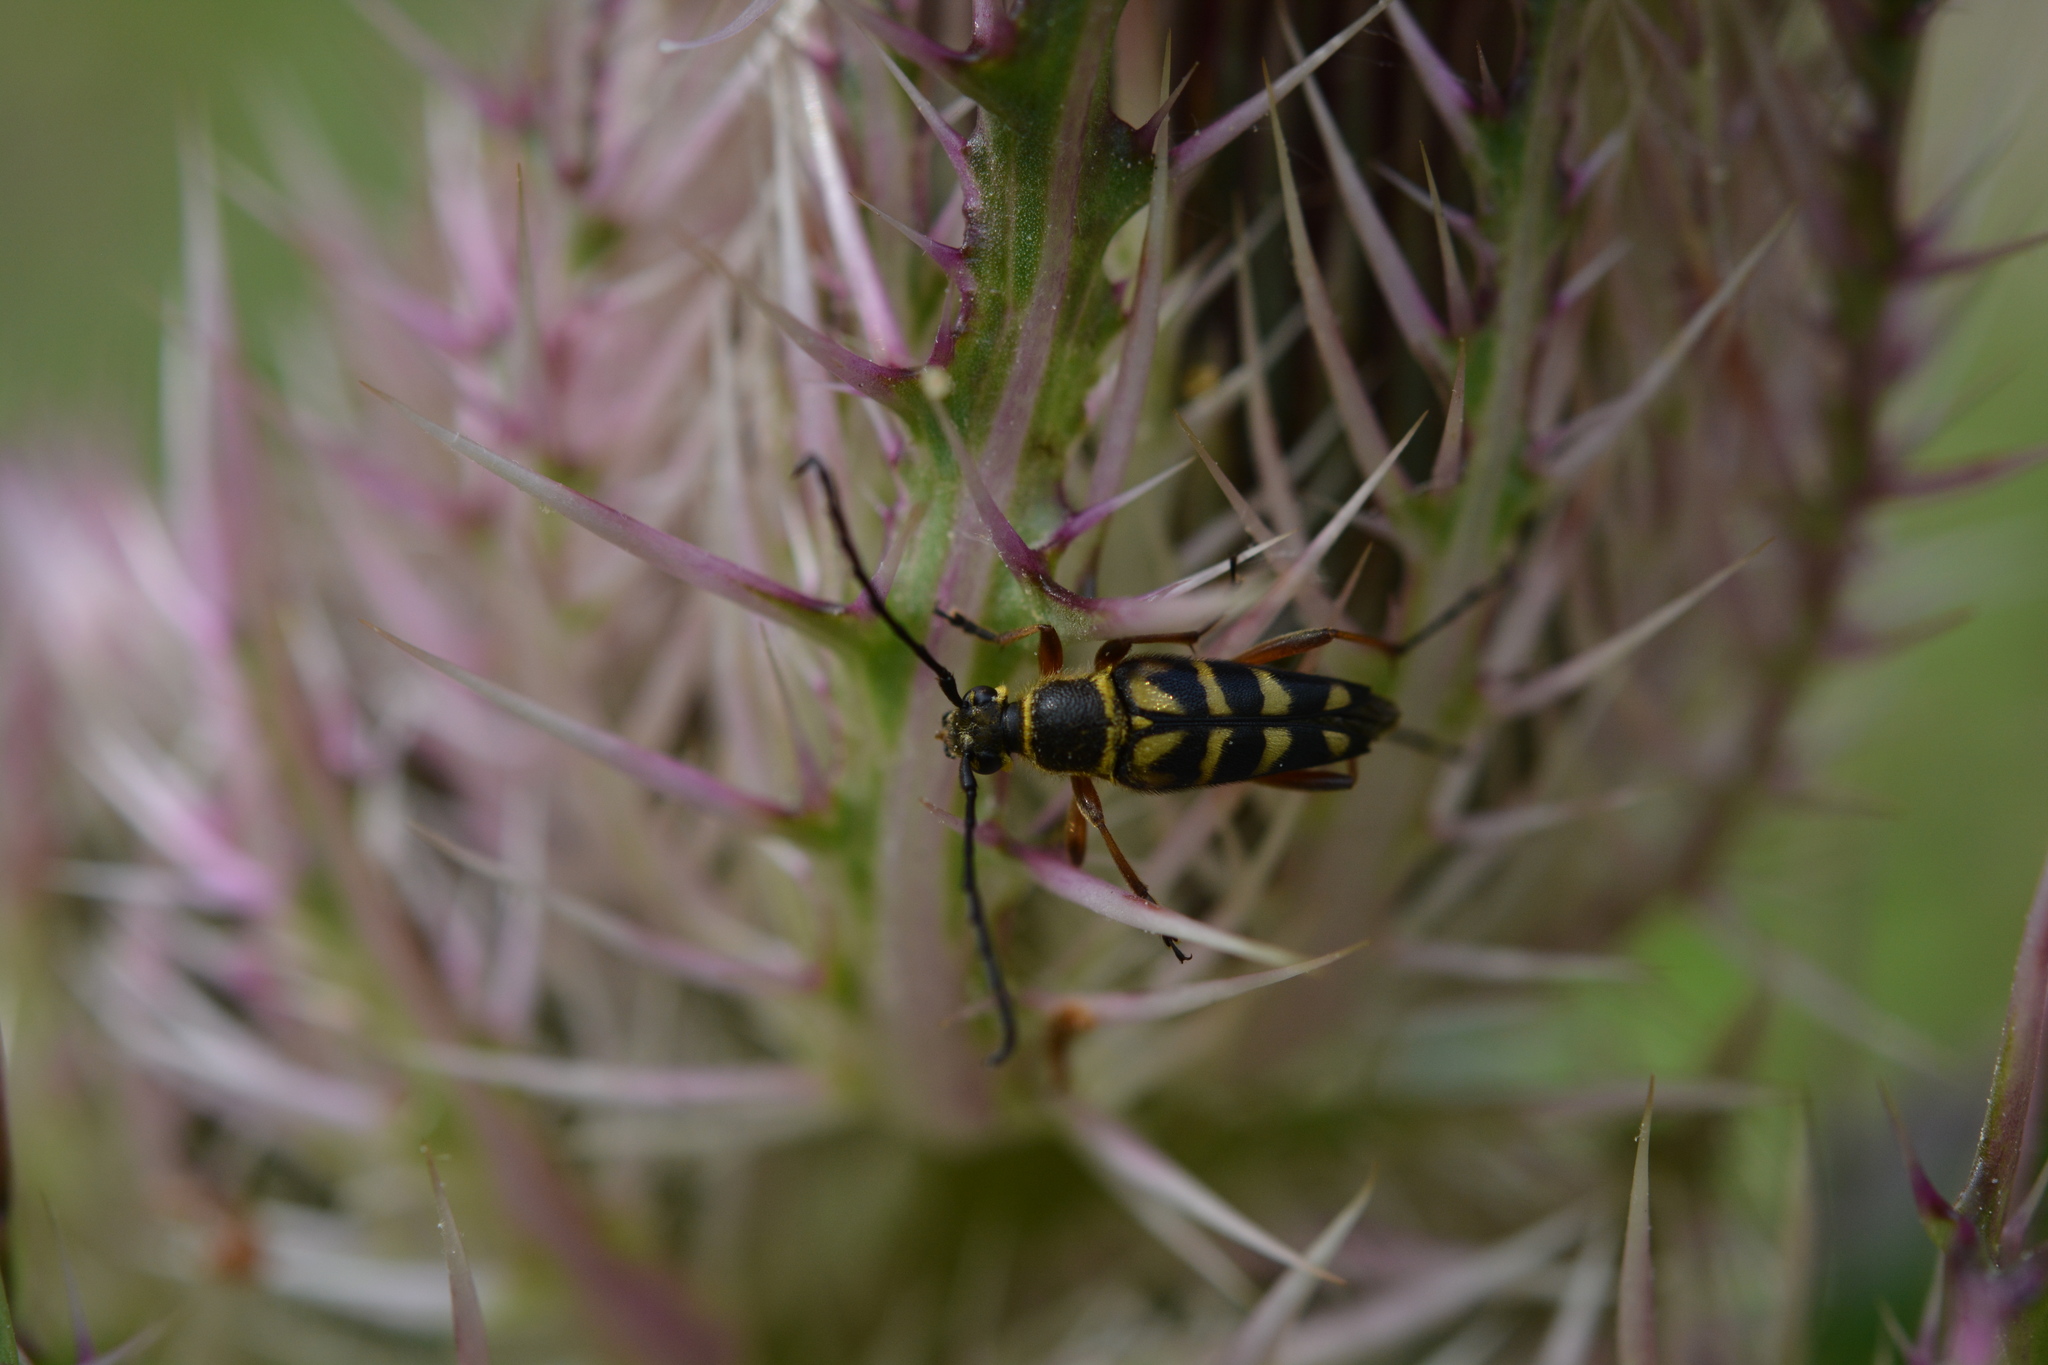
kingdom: Animalia
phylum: Arthropoda
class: Insecta
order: Coleoptera
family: Cerambycidae
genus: Typocerus
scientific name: Typocerus zebra
